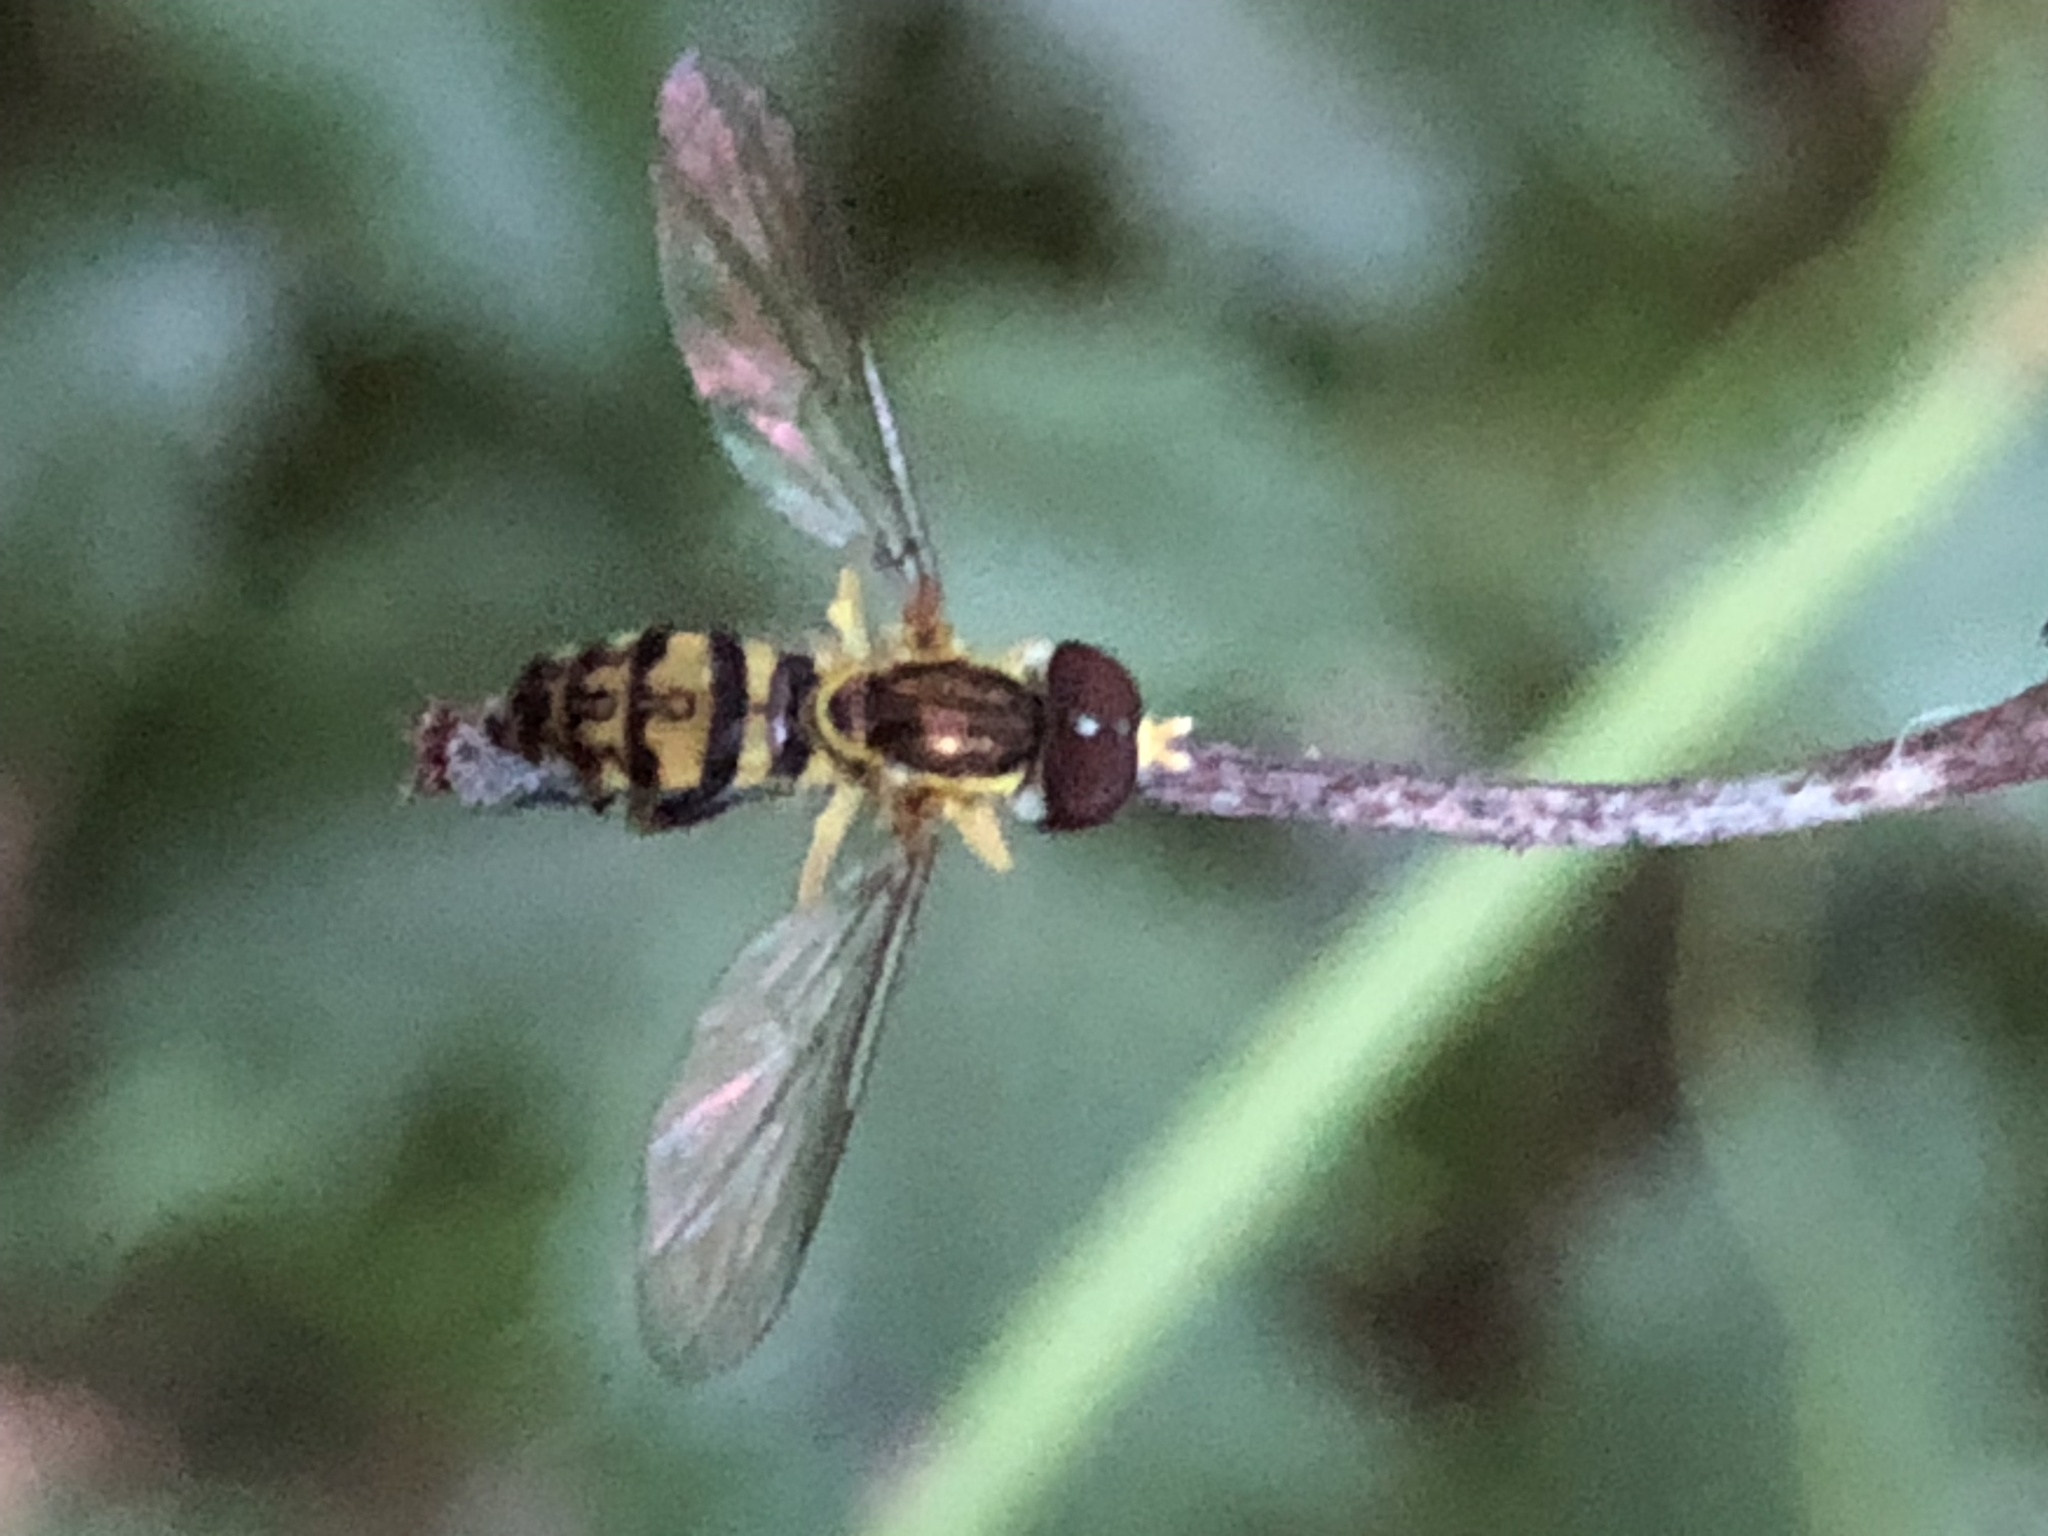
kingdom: Animalia
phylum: Arthropoda
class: Insecta
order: Diptera
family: Syrphidae
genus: Toxomerus
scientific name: Toxomerus geminatus
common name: Eastern calligrapher
